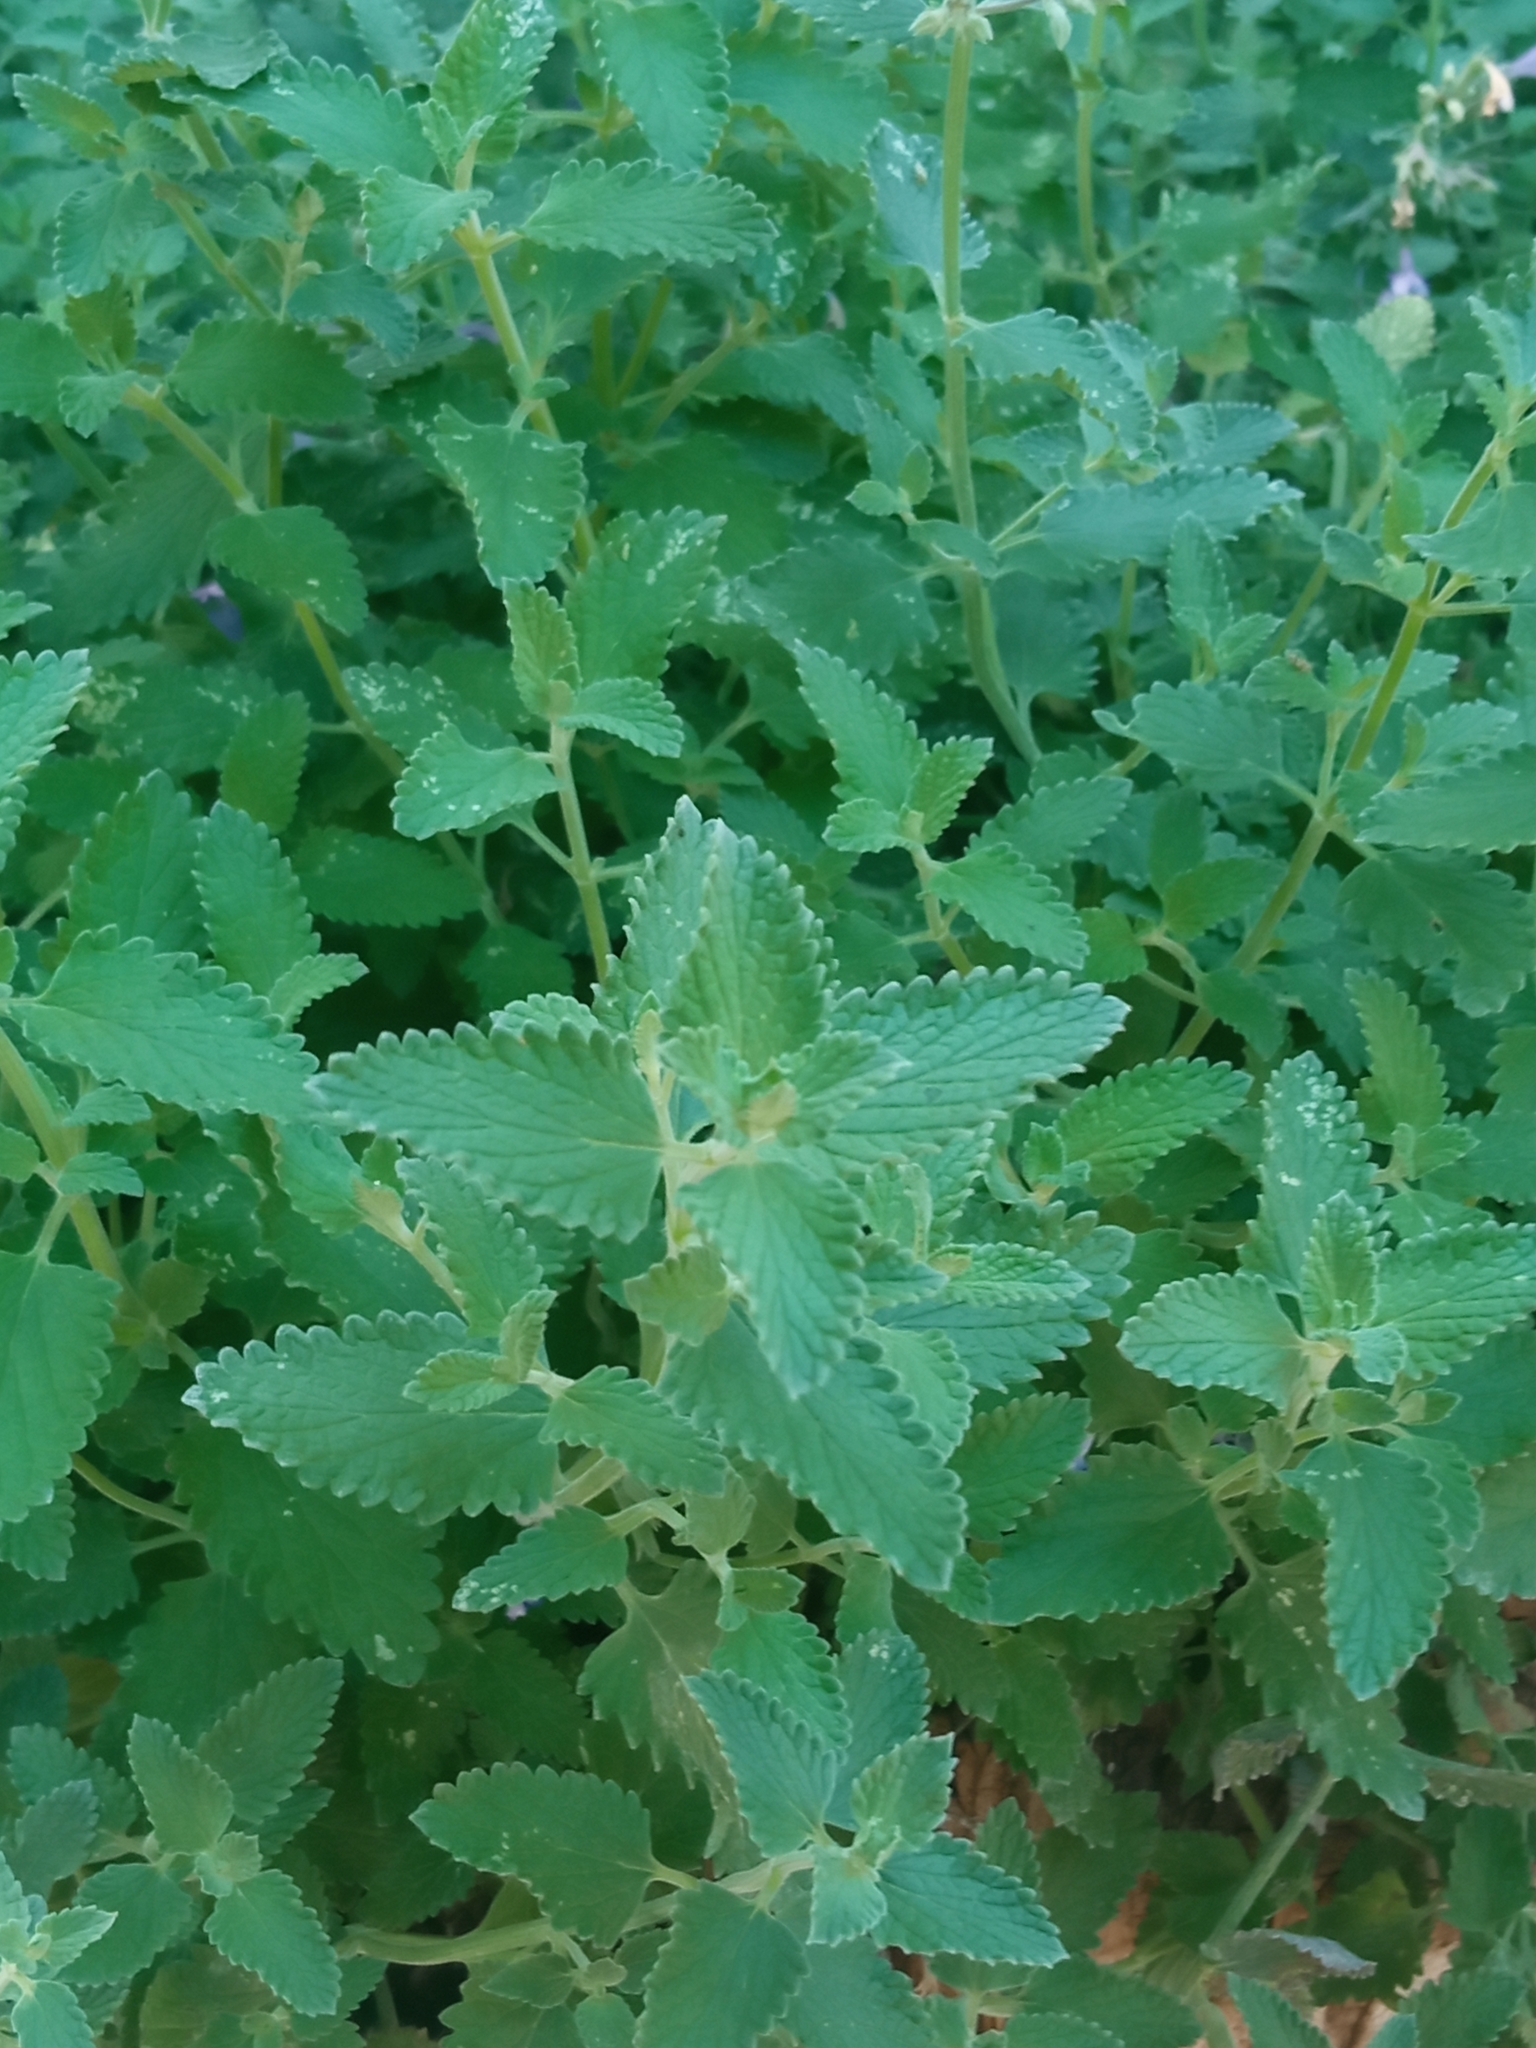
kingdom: Plantae
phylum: Tracheophyta
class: Magnoliopsida
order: Lamiales
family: Lamiaceae
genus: Nepeta
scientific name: Nepeta nepetella
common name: Lesser catmint
